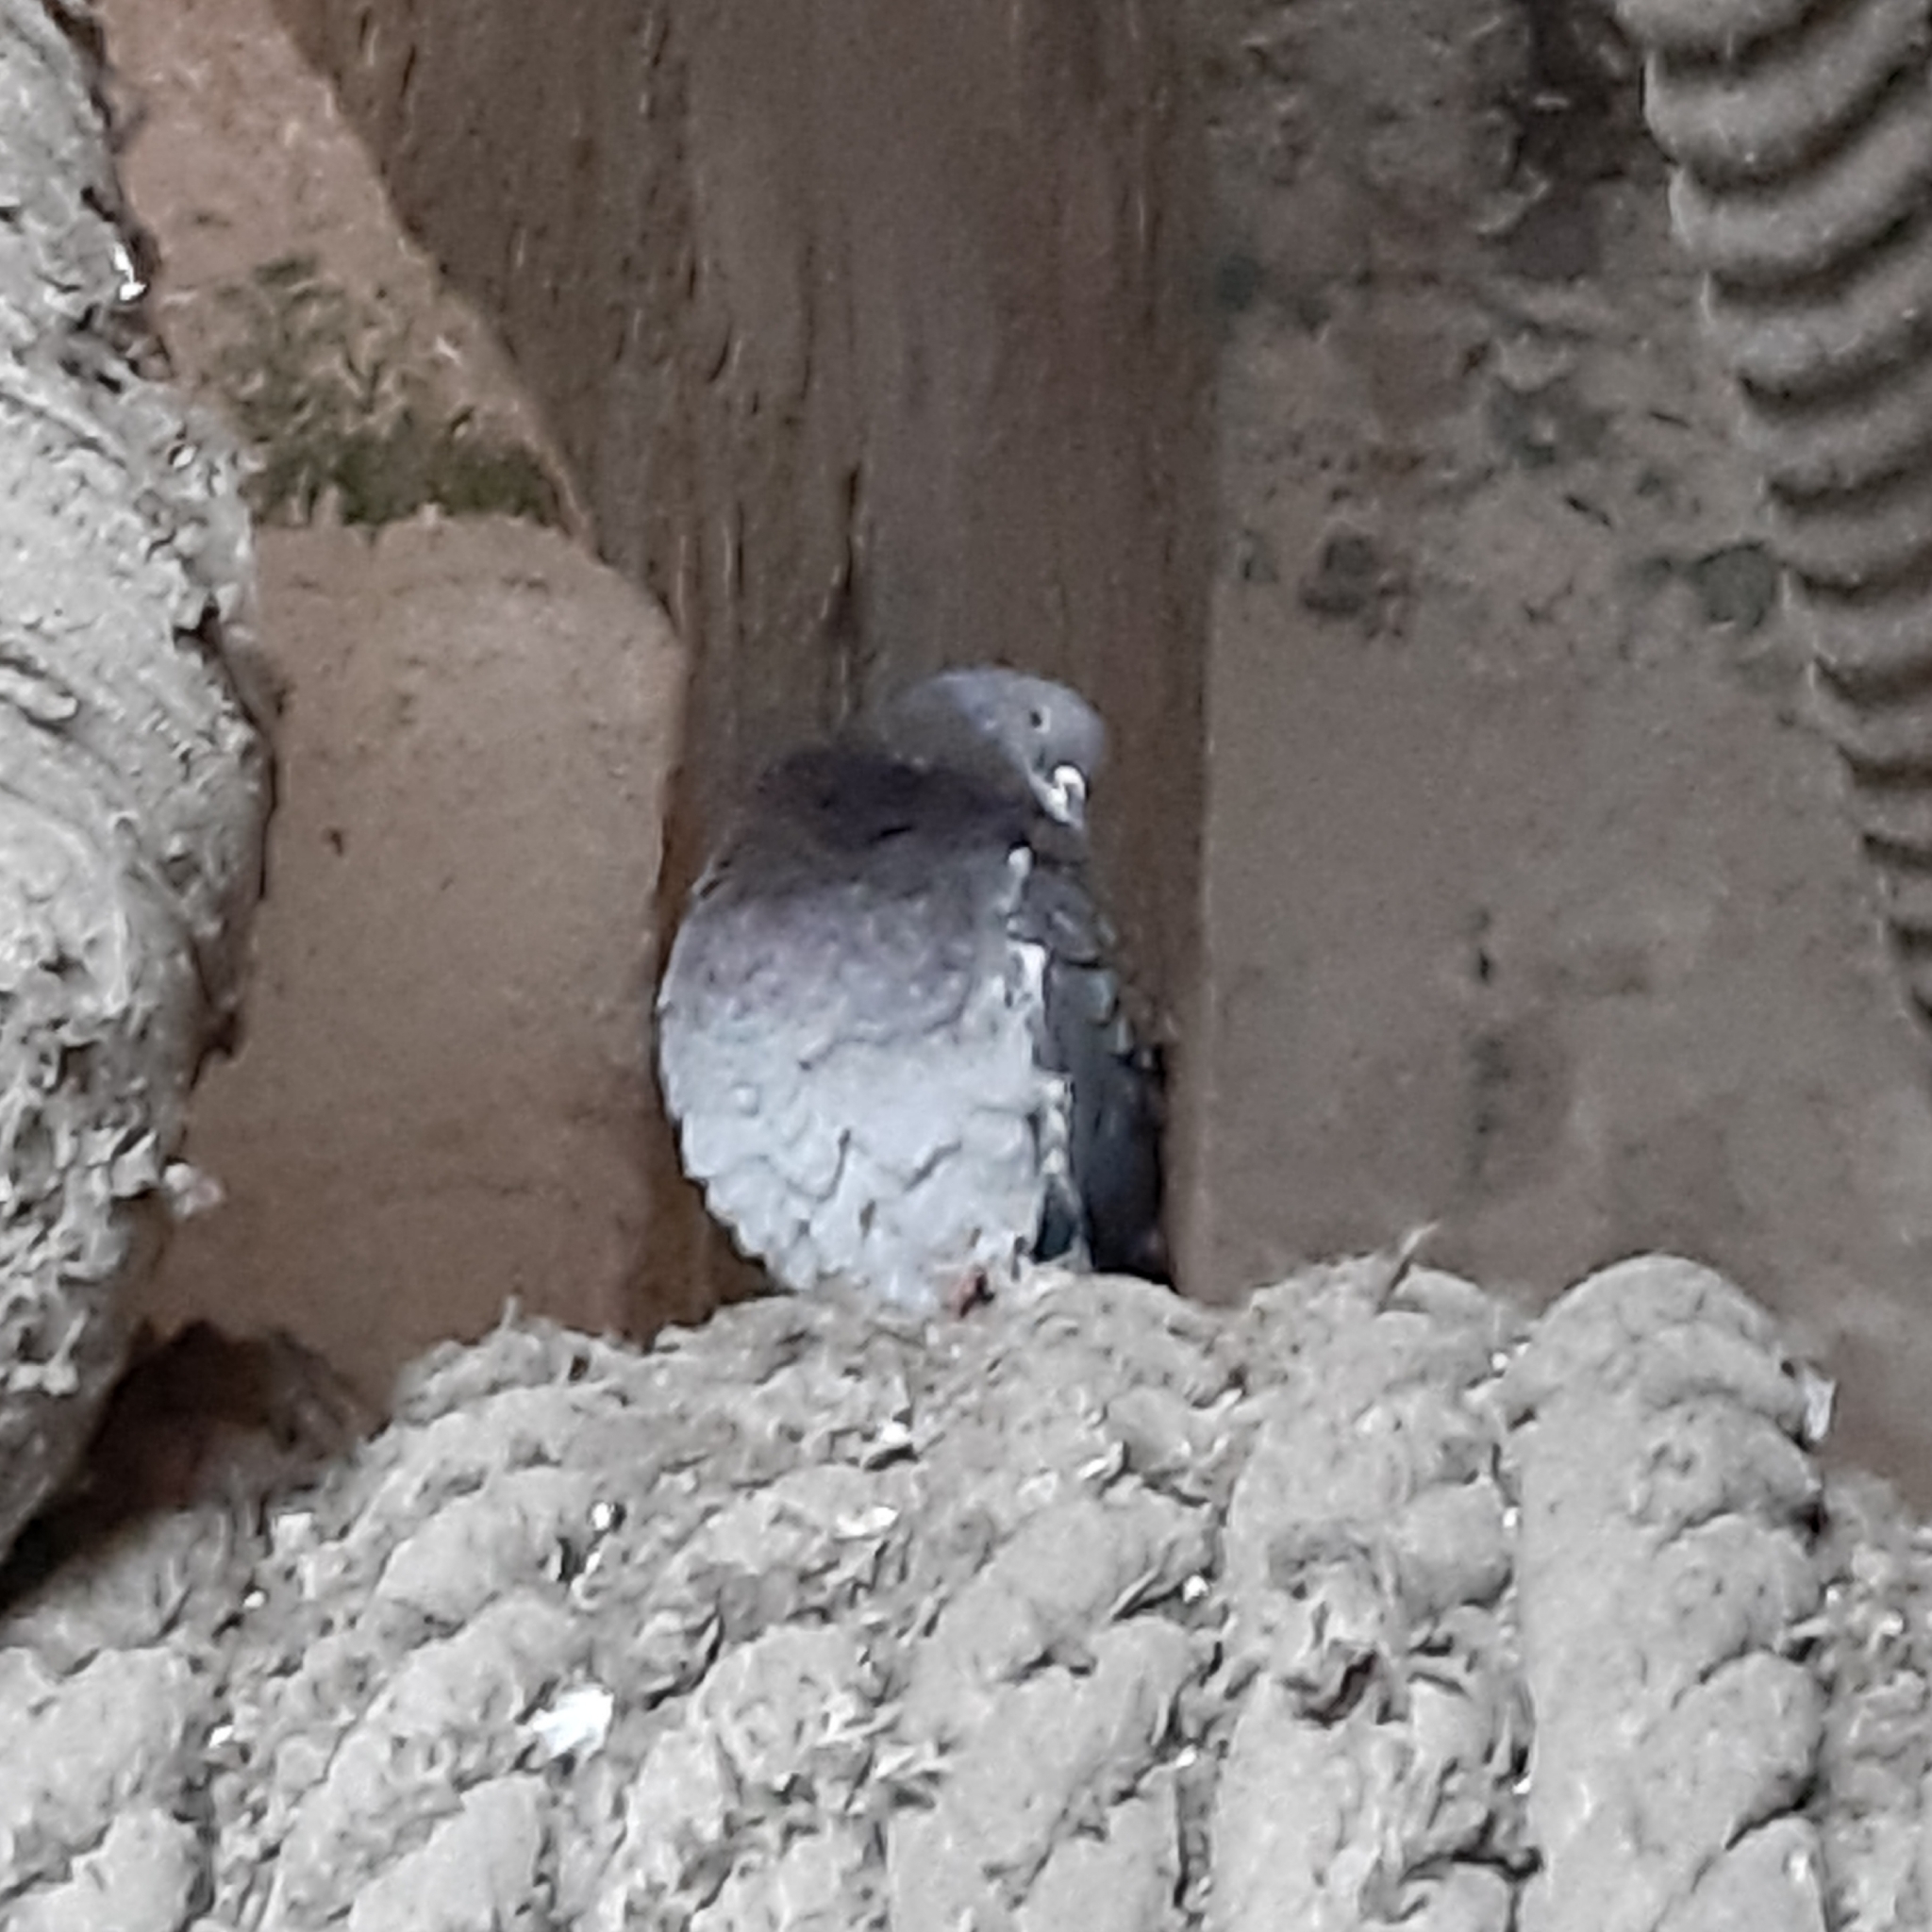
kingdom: Animalia
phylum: Chordata
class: Aves
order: Columbiformes
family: Columbidae
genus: Columba
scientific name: Columba livia
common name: Rock pigeon
